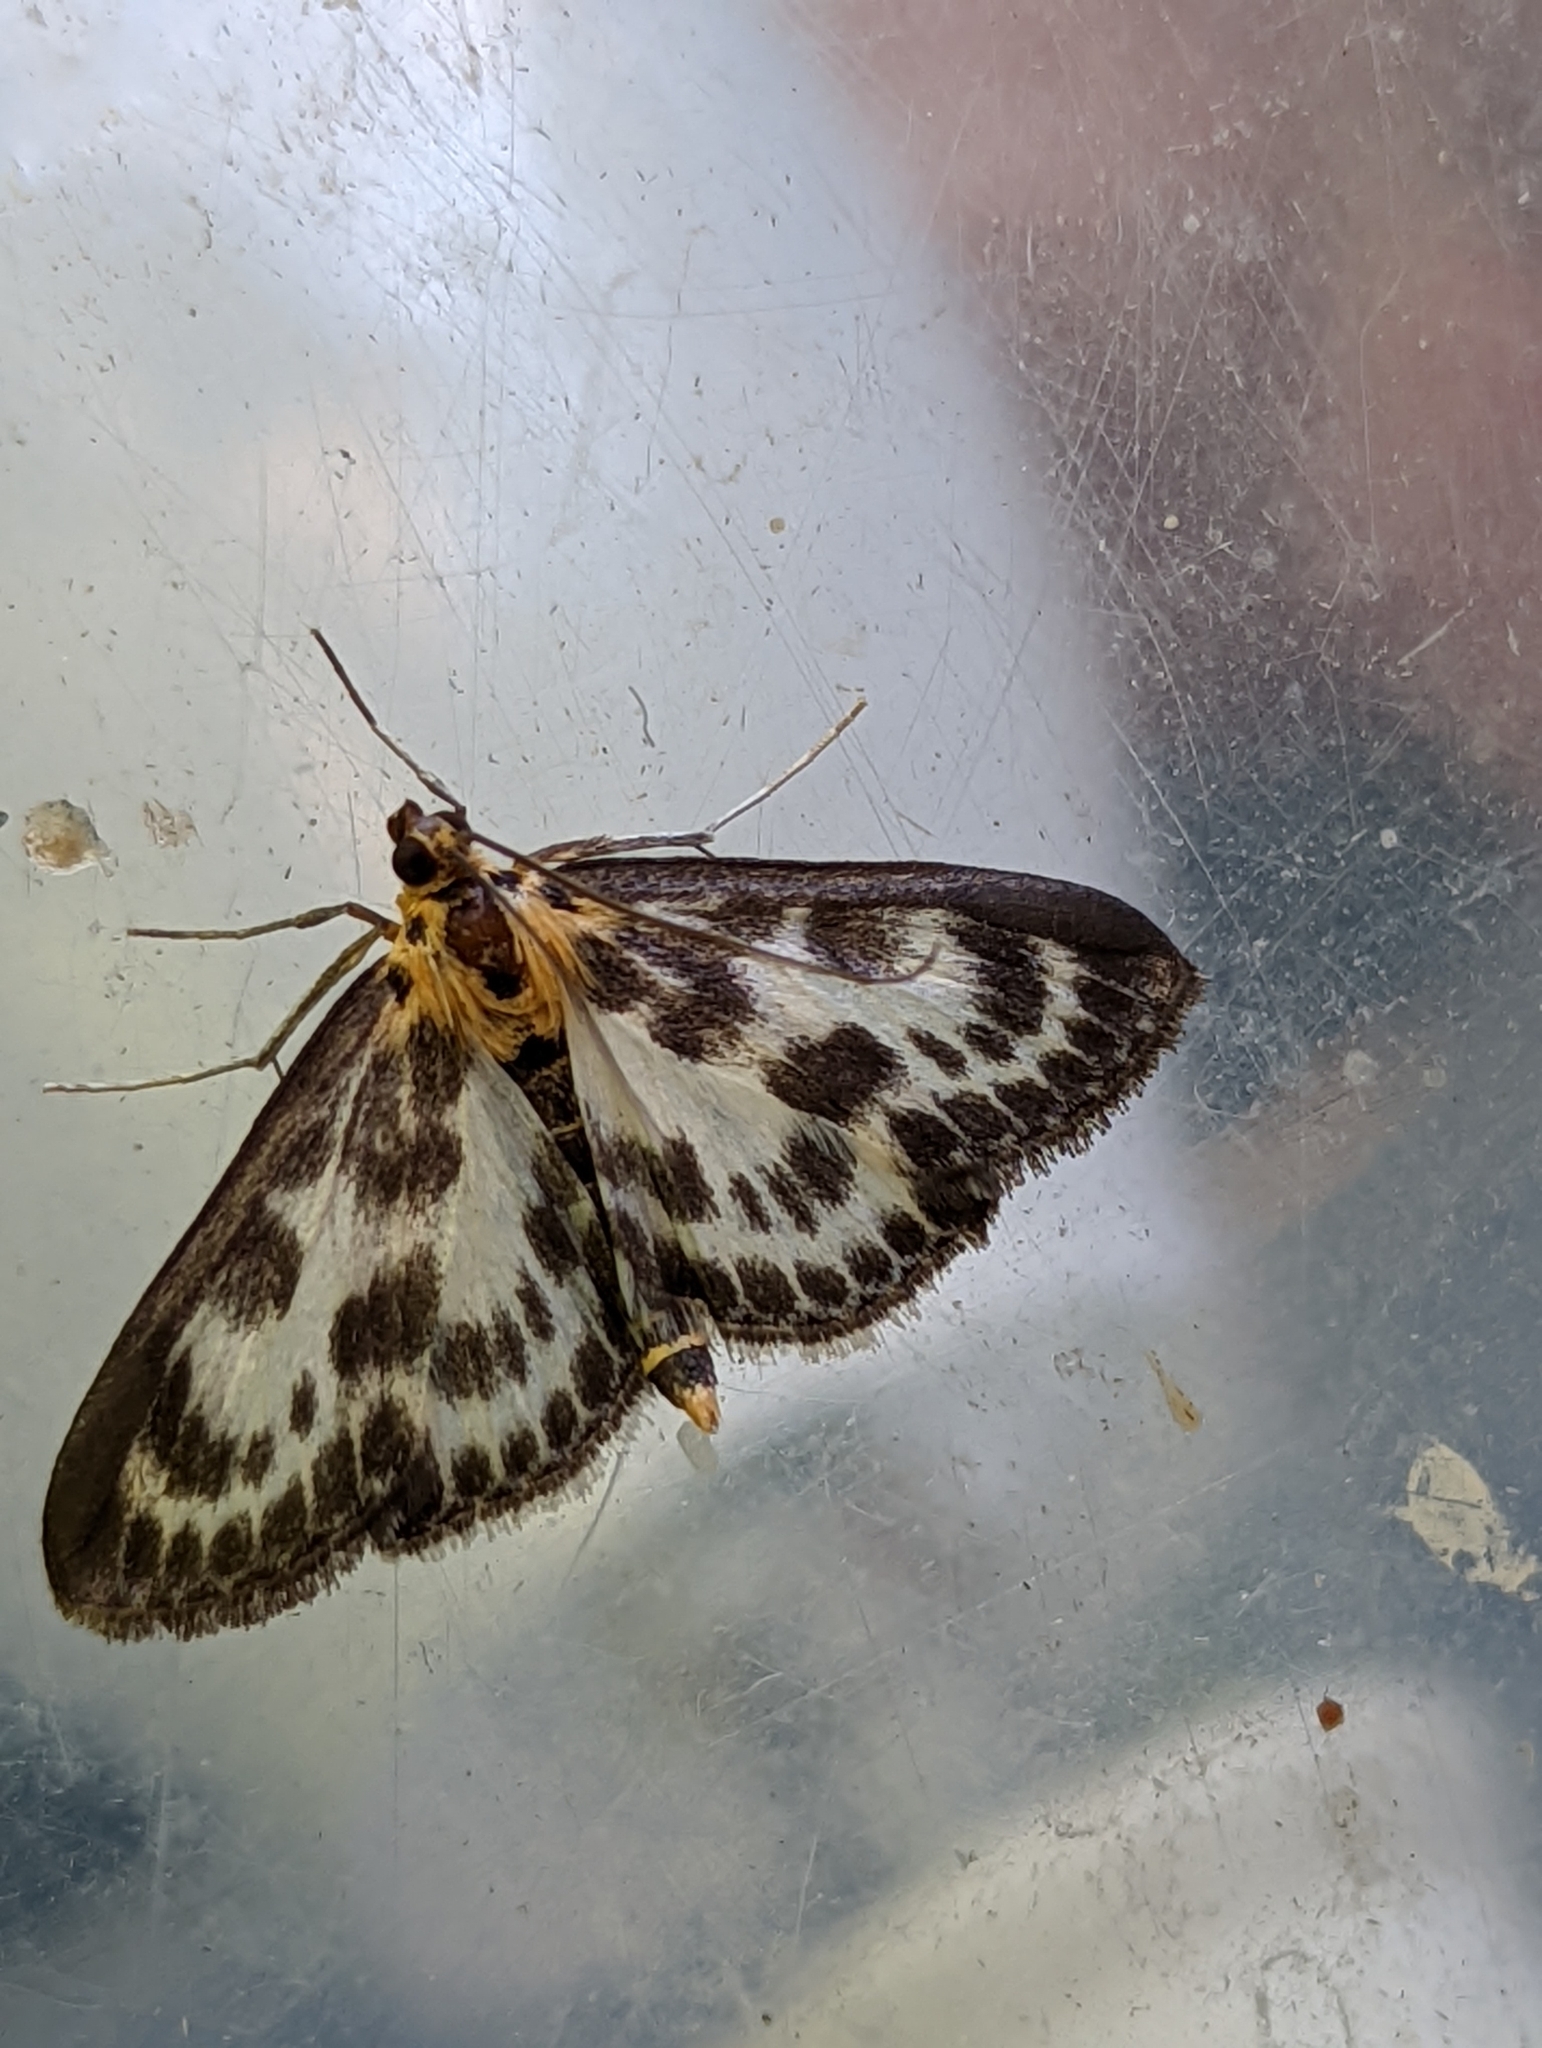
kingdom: Animalia
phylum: Arthropoda
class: Insecta
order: Lepidoptera
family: Crambidae
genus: Anania
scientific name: Anania hortulata
